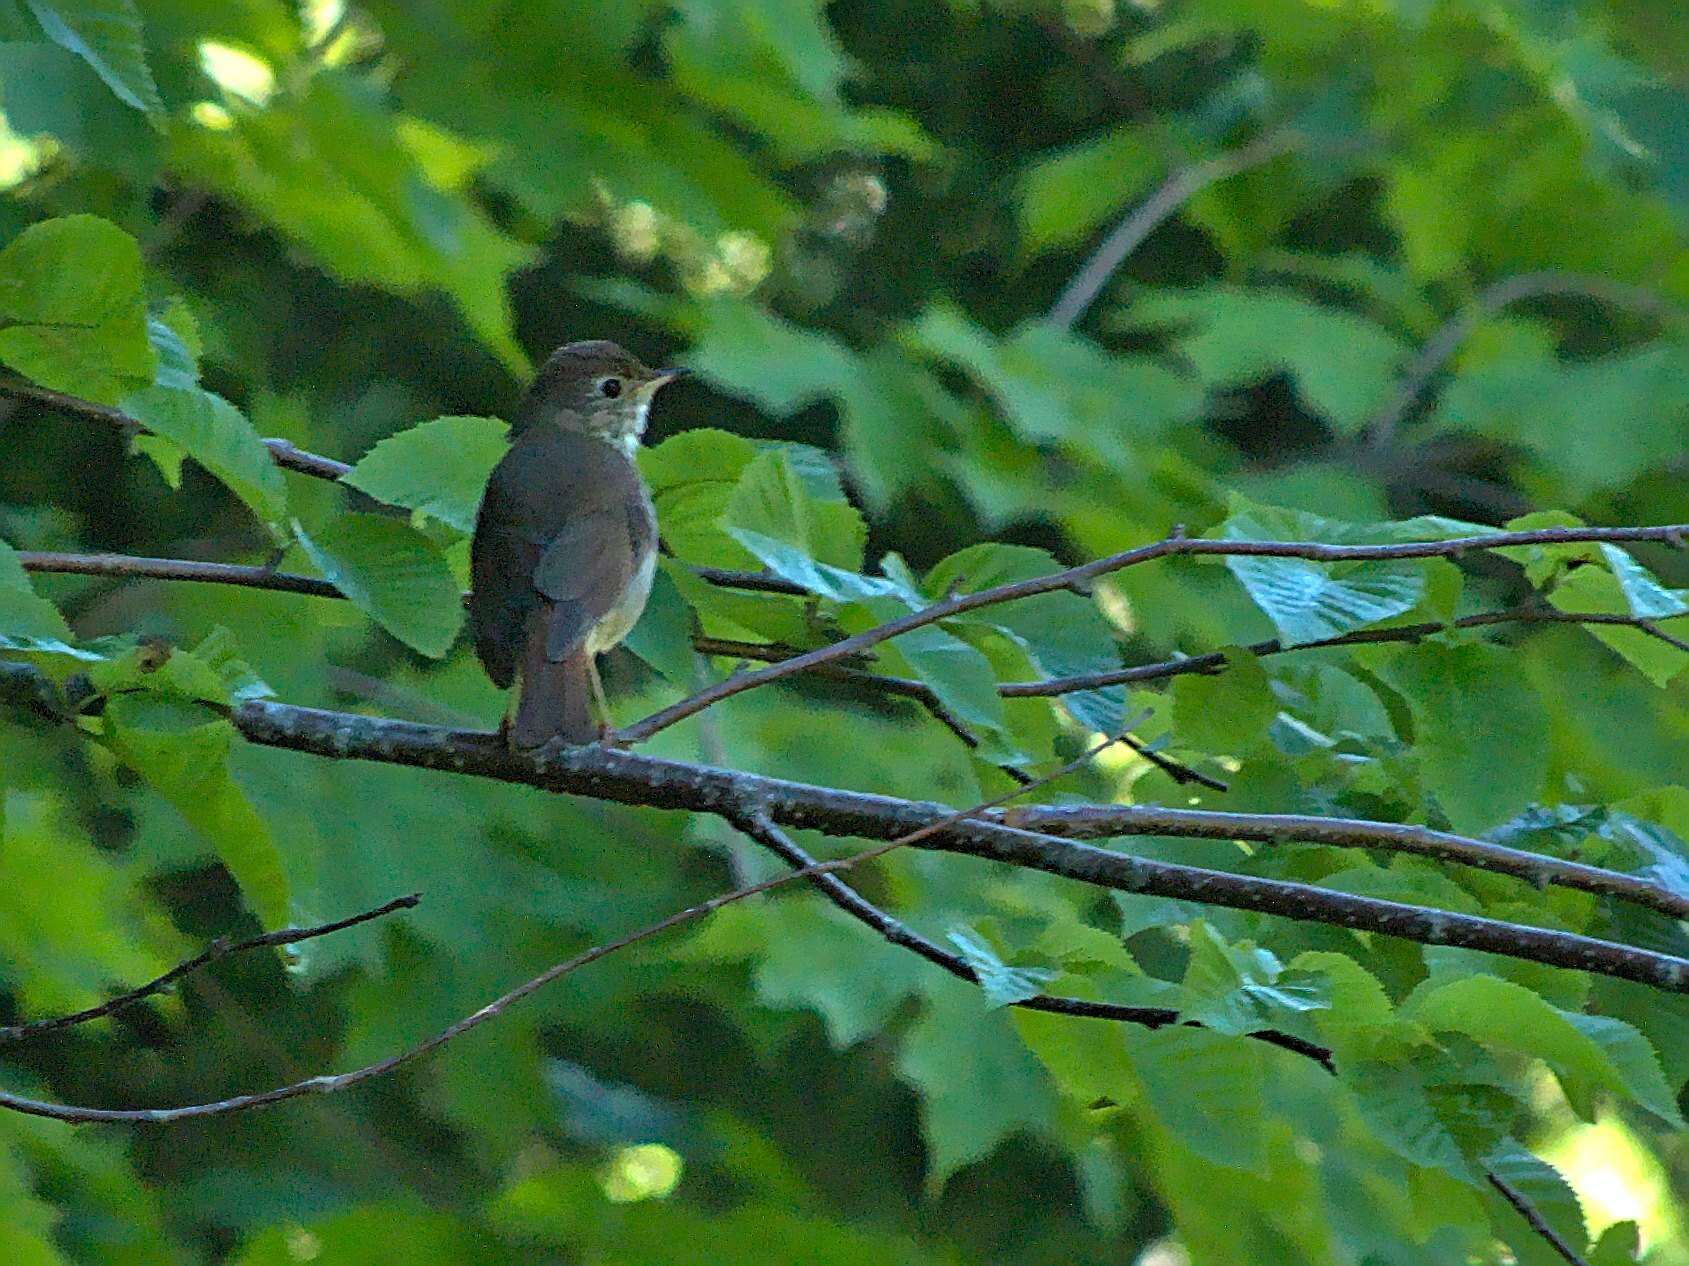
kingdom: Animalia
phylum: Chordata
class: Aves
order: Passeriformes
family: Turdidae
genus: Catharus
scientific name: Catharus guttatus
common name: Hermit thrush
